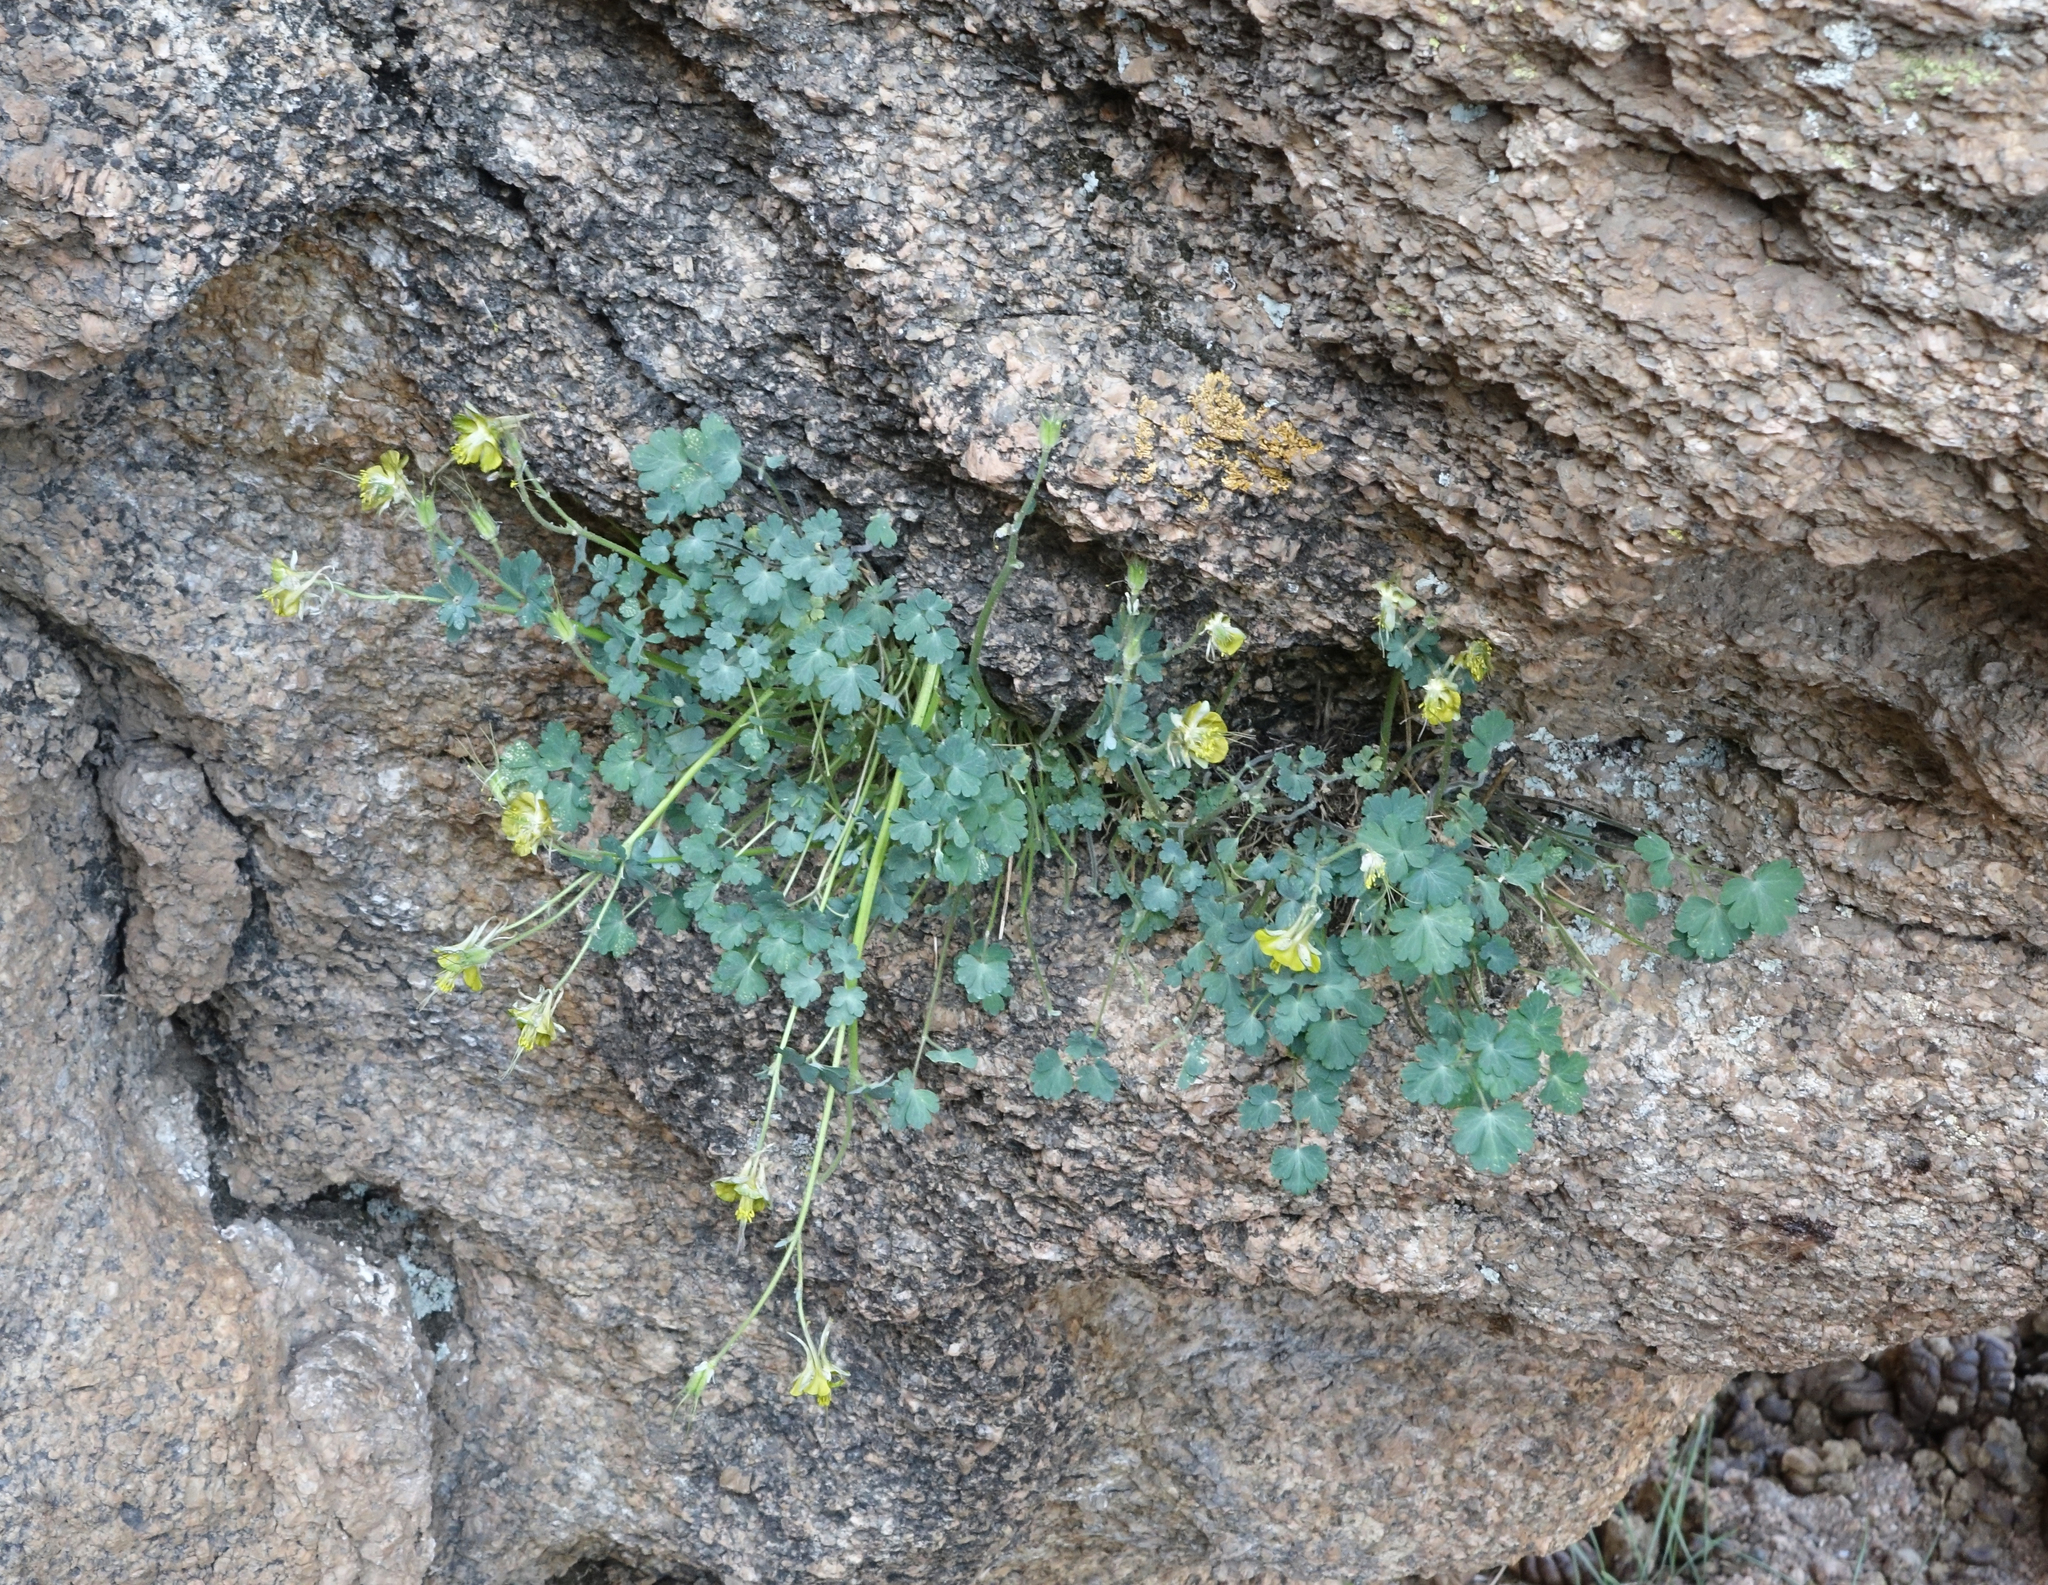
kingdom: Plantae
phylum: Tracheophyta
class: Magnoliopsida
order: Ranunculales
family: Ranunculaceae
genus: Aquilegia
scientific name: Aquilegia viridiflora
